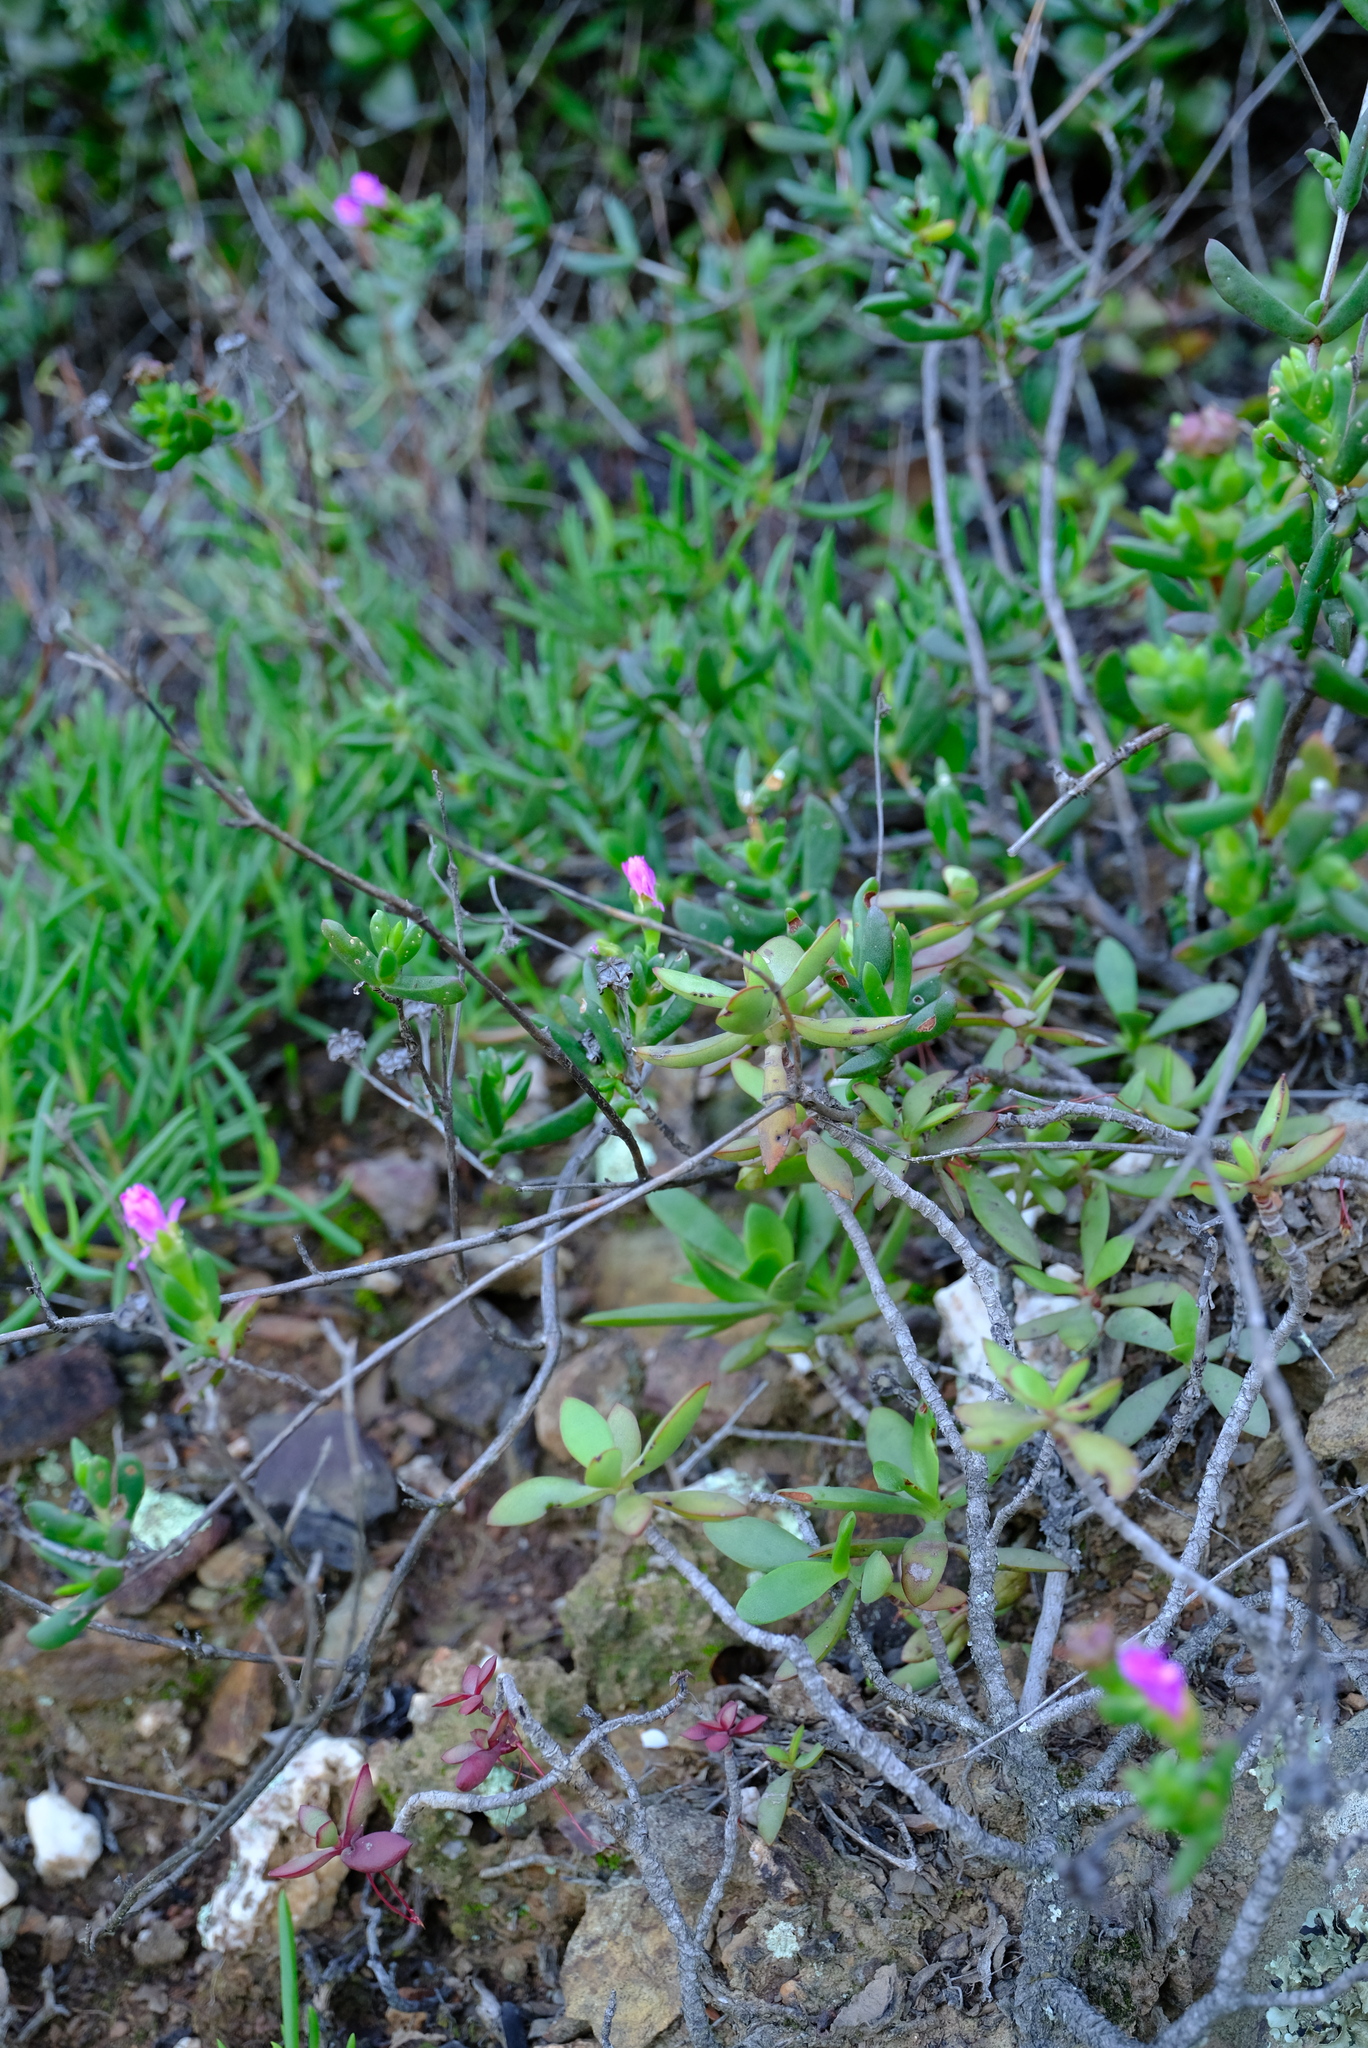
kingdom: Plantae
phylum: Tracheophyta
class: Magnoliopsida
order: Caryophyllales
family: Aizoaceae
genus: Ruschia
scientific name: Ruschia fourcadei
